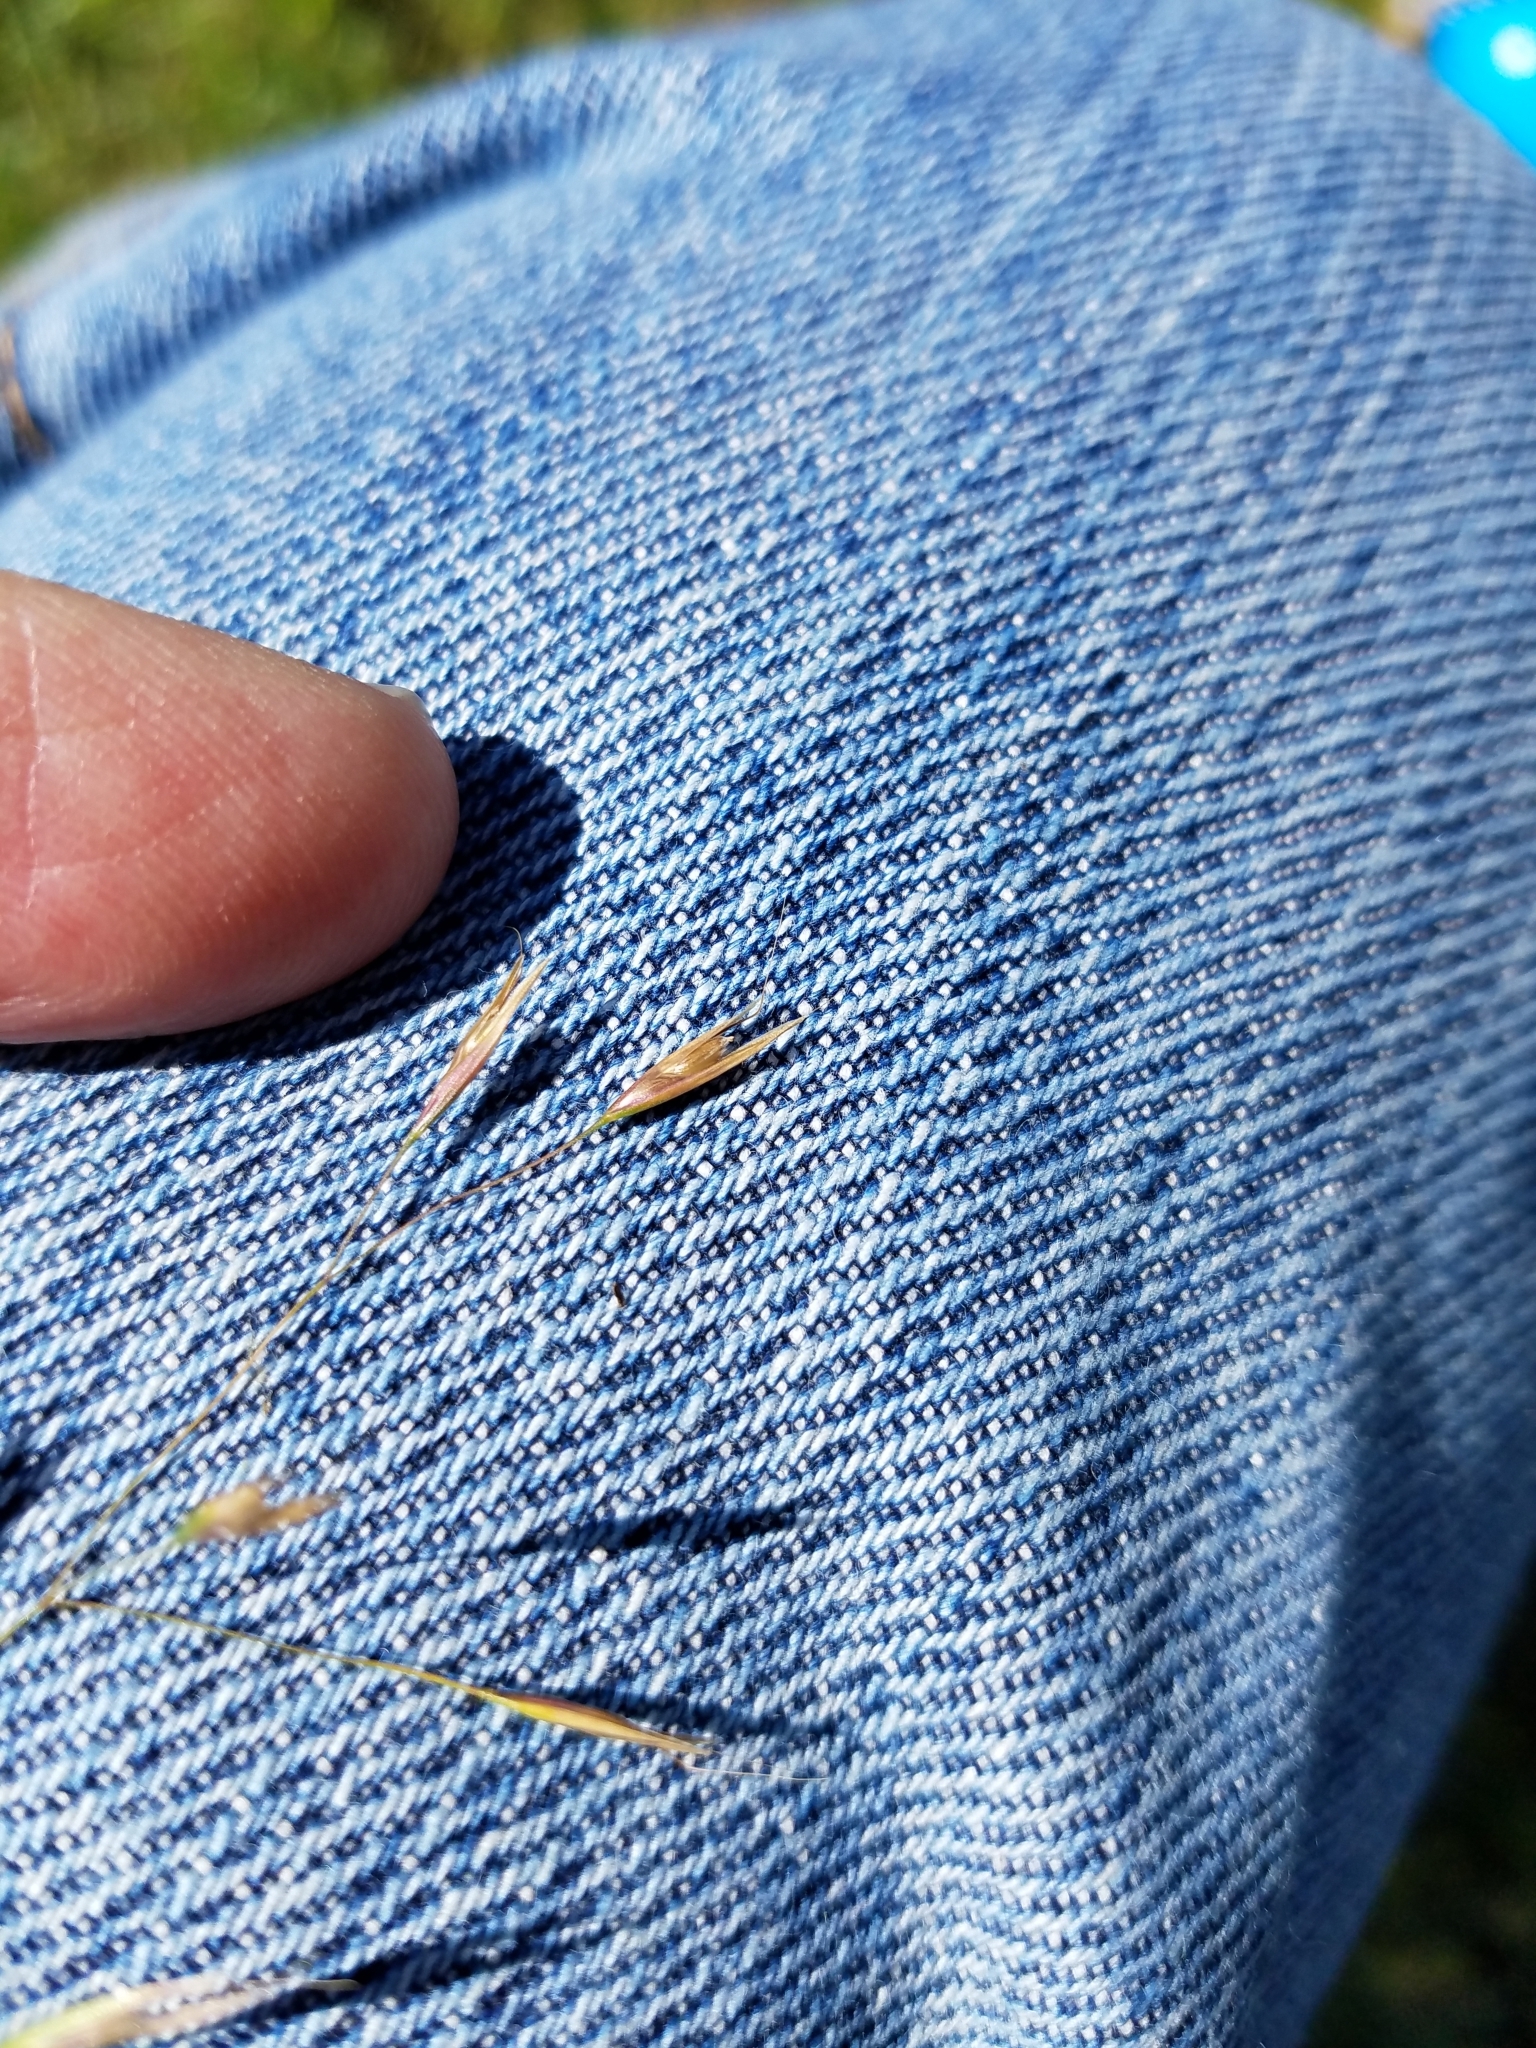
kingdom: Plantae
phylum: Tracheophyta
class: Liliopsida
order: Poales
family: Poaceae
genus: Deschampsia
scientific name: Deschampsia danthonioides
